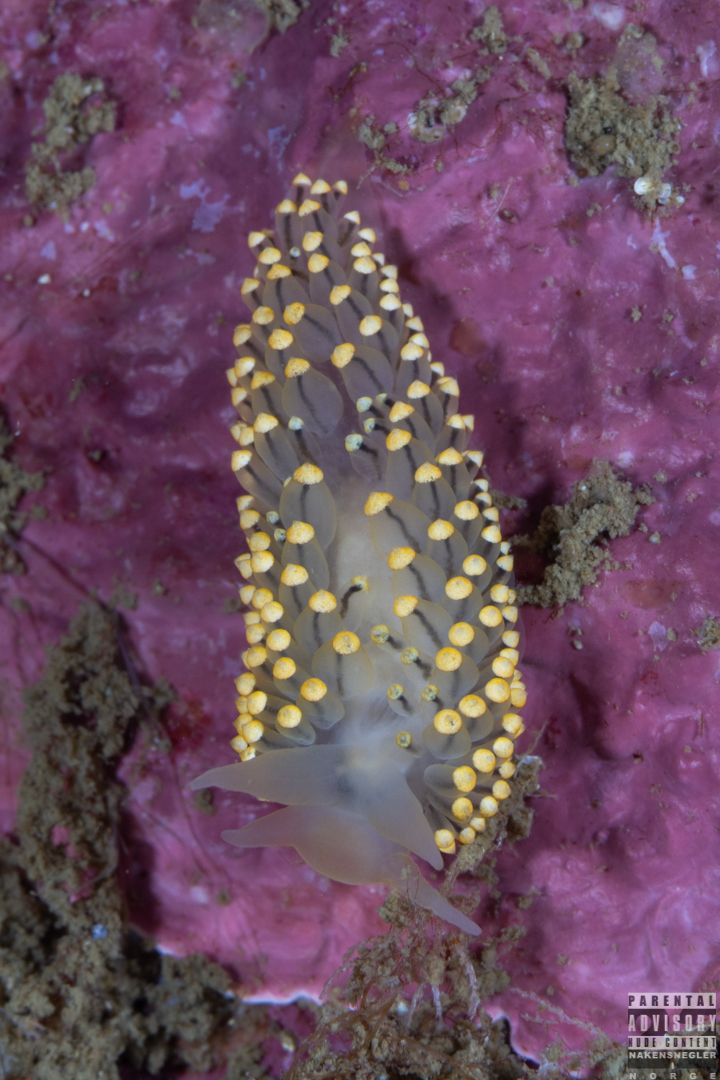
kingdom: Animalia
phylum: Mollusca
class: Gastropoda
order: Nudibranchia
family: Eubranchidae
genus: Eubranchus
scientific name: Eubranchus tricolor
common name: Painted balloon aeolis
